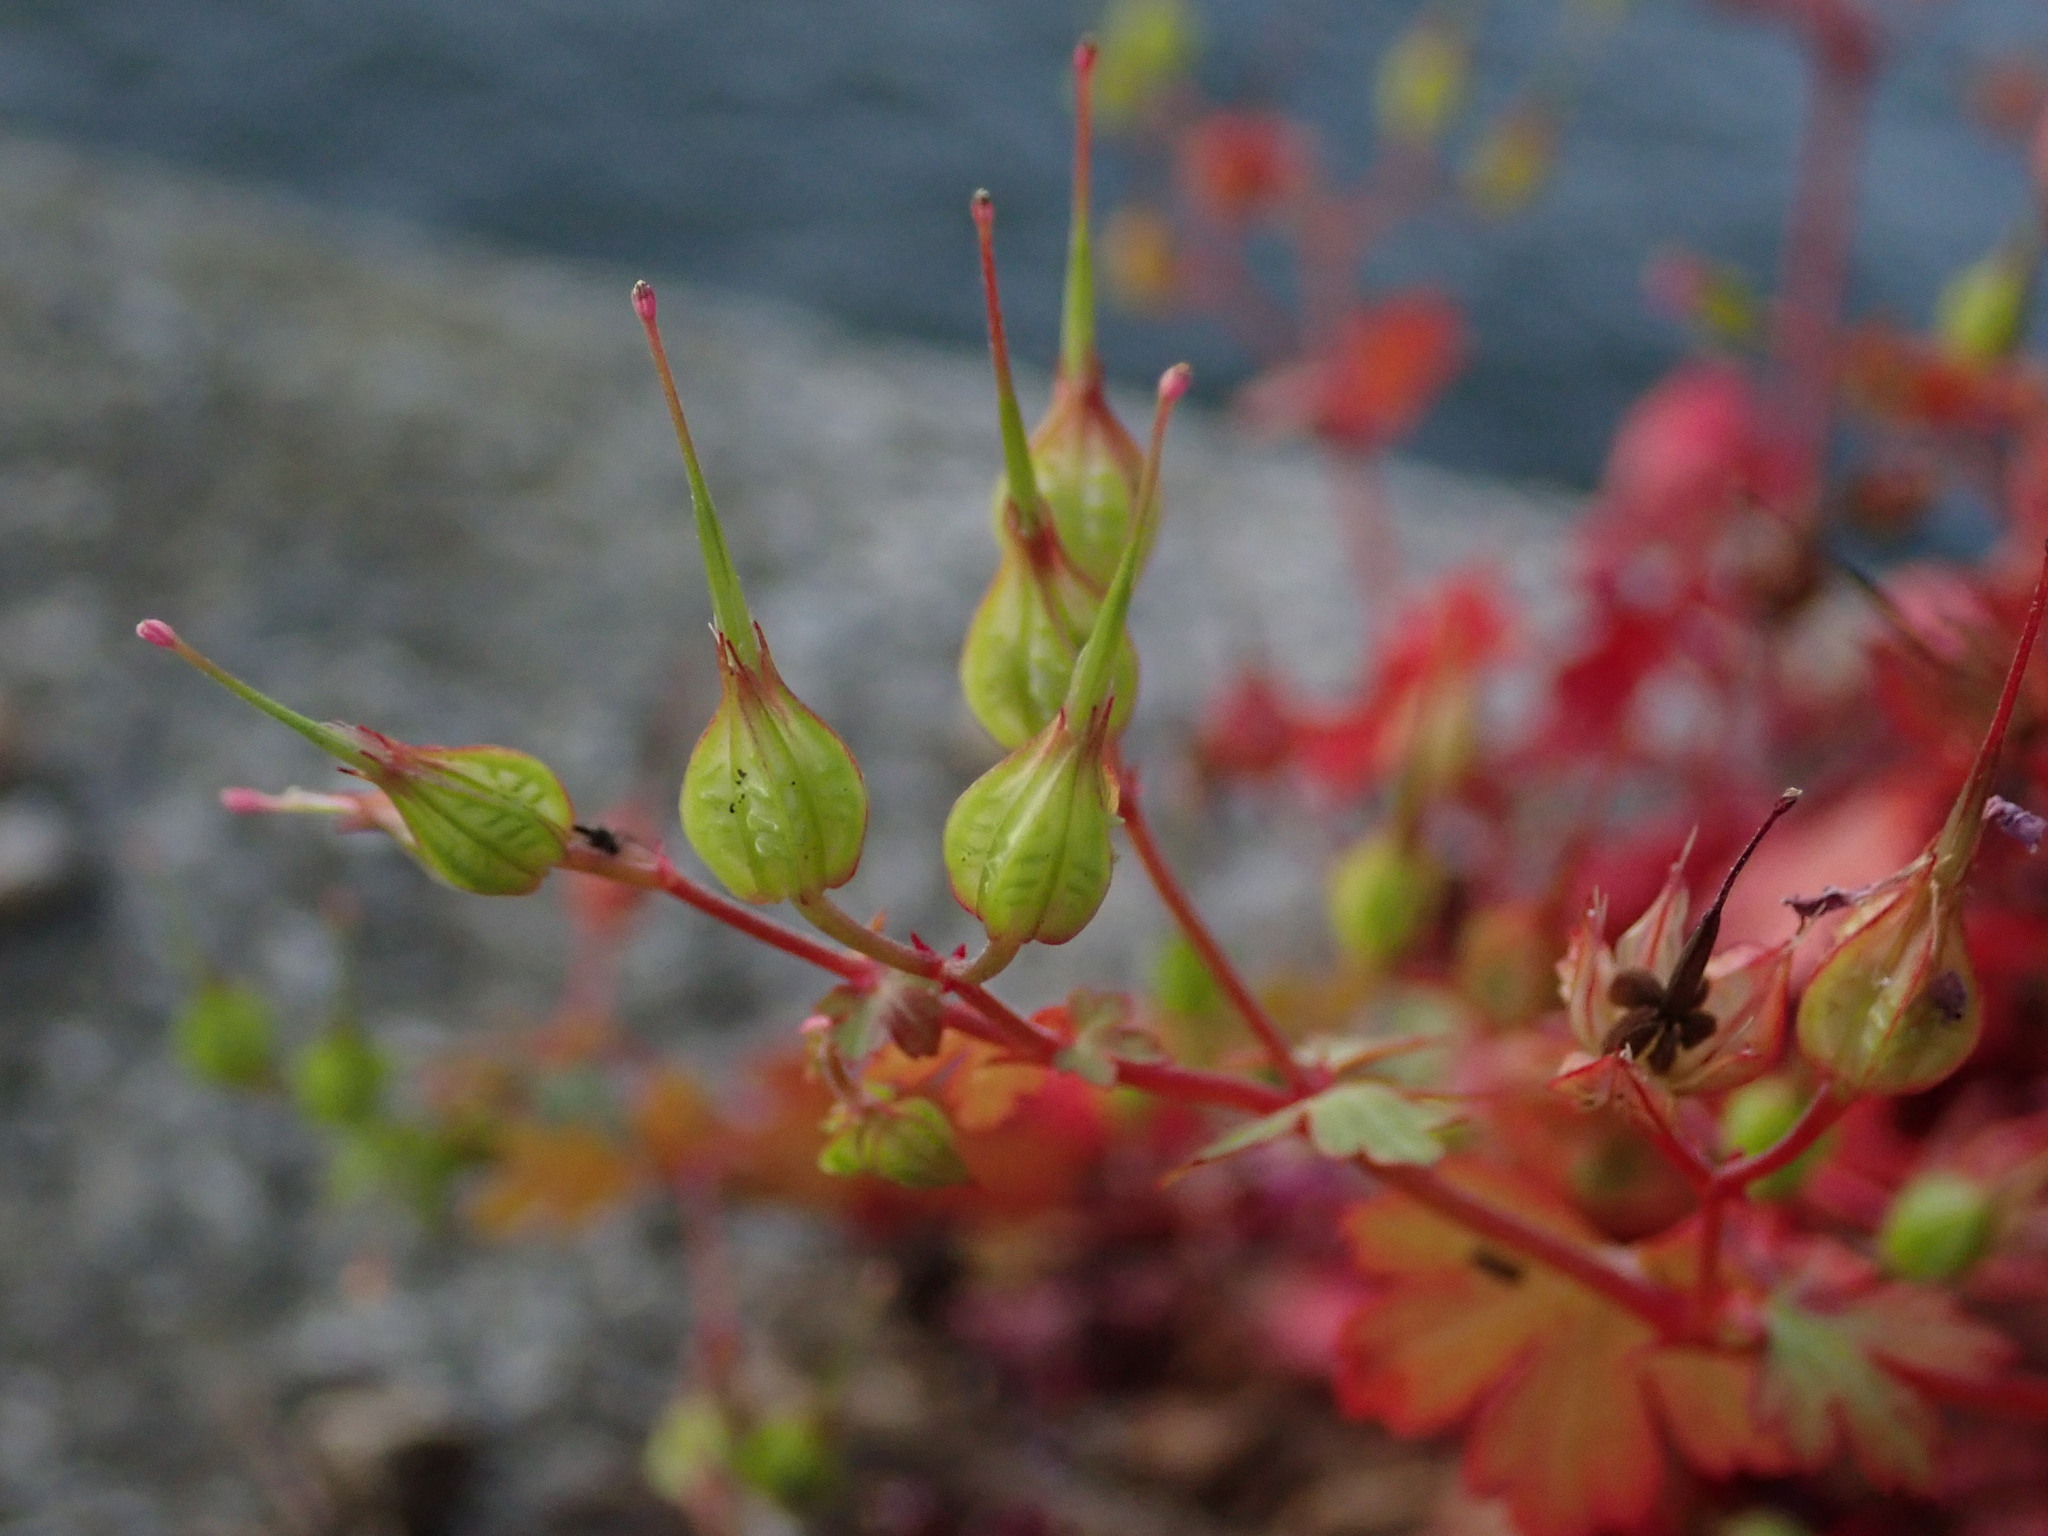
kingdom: Plantae
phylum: Tracheophyta
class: Magnoliopsida
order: Geraniales
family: Geraniaceae
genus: Geranium
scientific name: Geranium lucidum
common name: Shining crane's-bill
